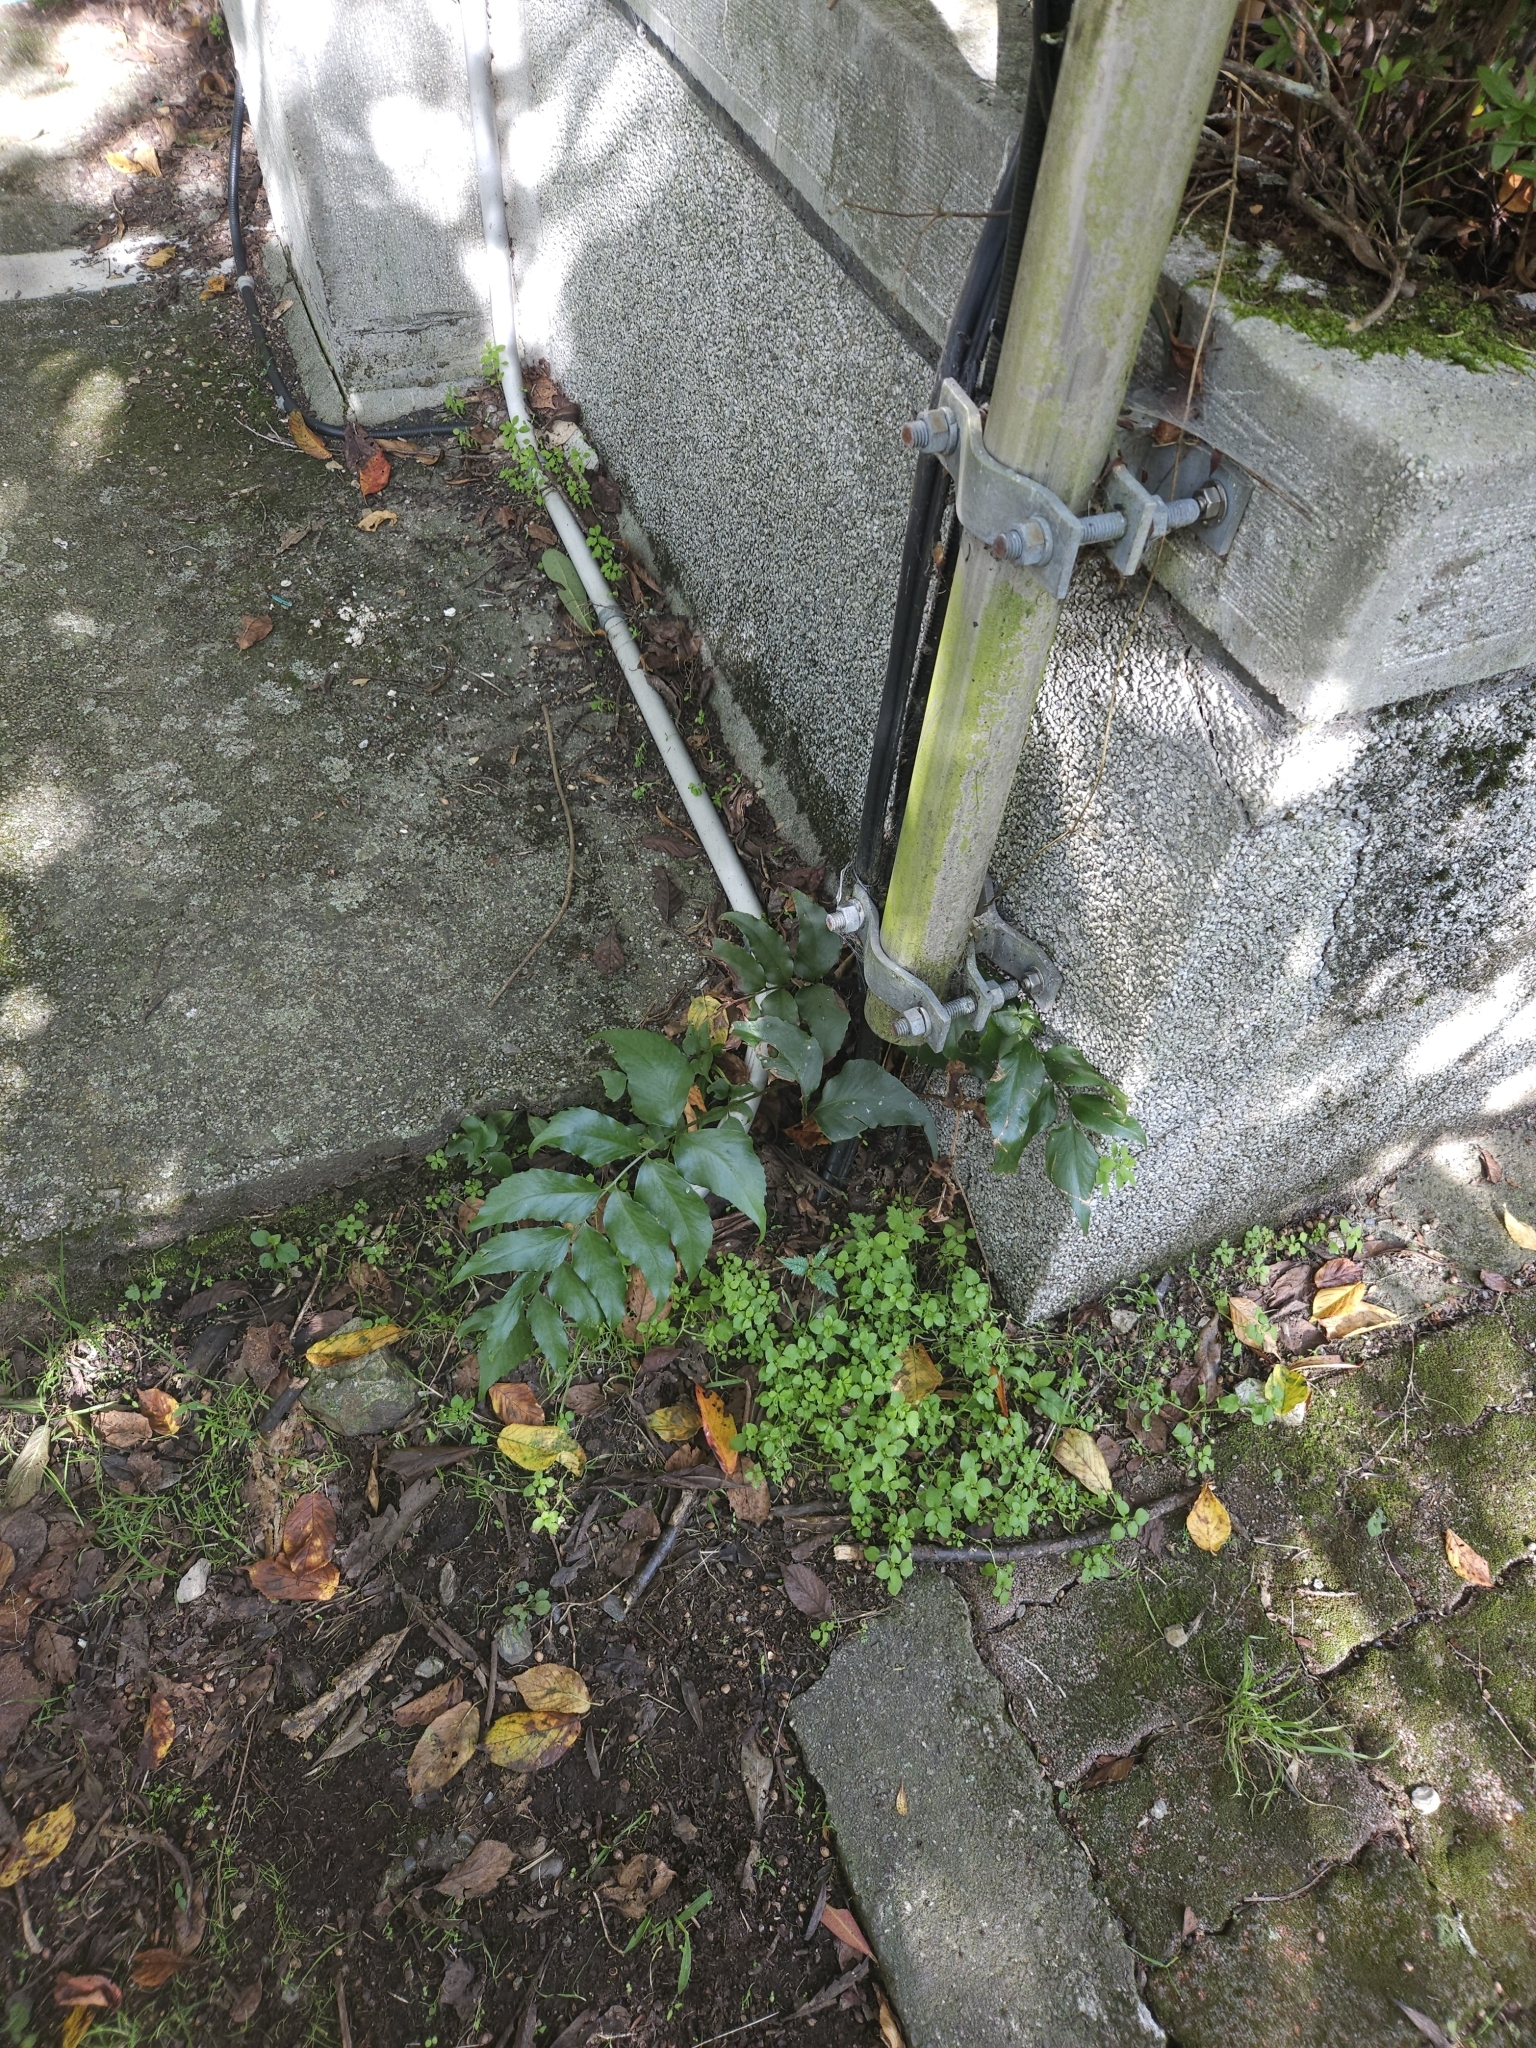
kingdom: Plantae
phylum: Tracheophyta
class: Polypodiopsida
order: Polypodiales
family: Dryopteridaceae
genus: Cyrtomium
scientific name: Cyrtomium falcatum
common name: House holly-fern
